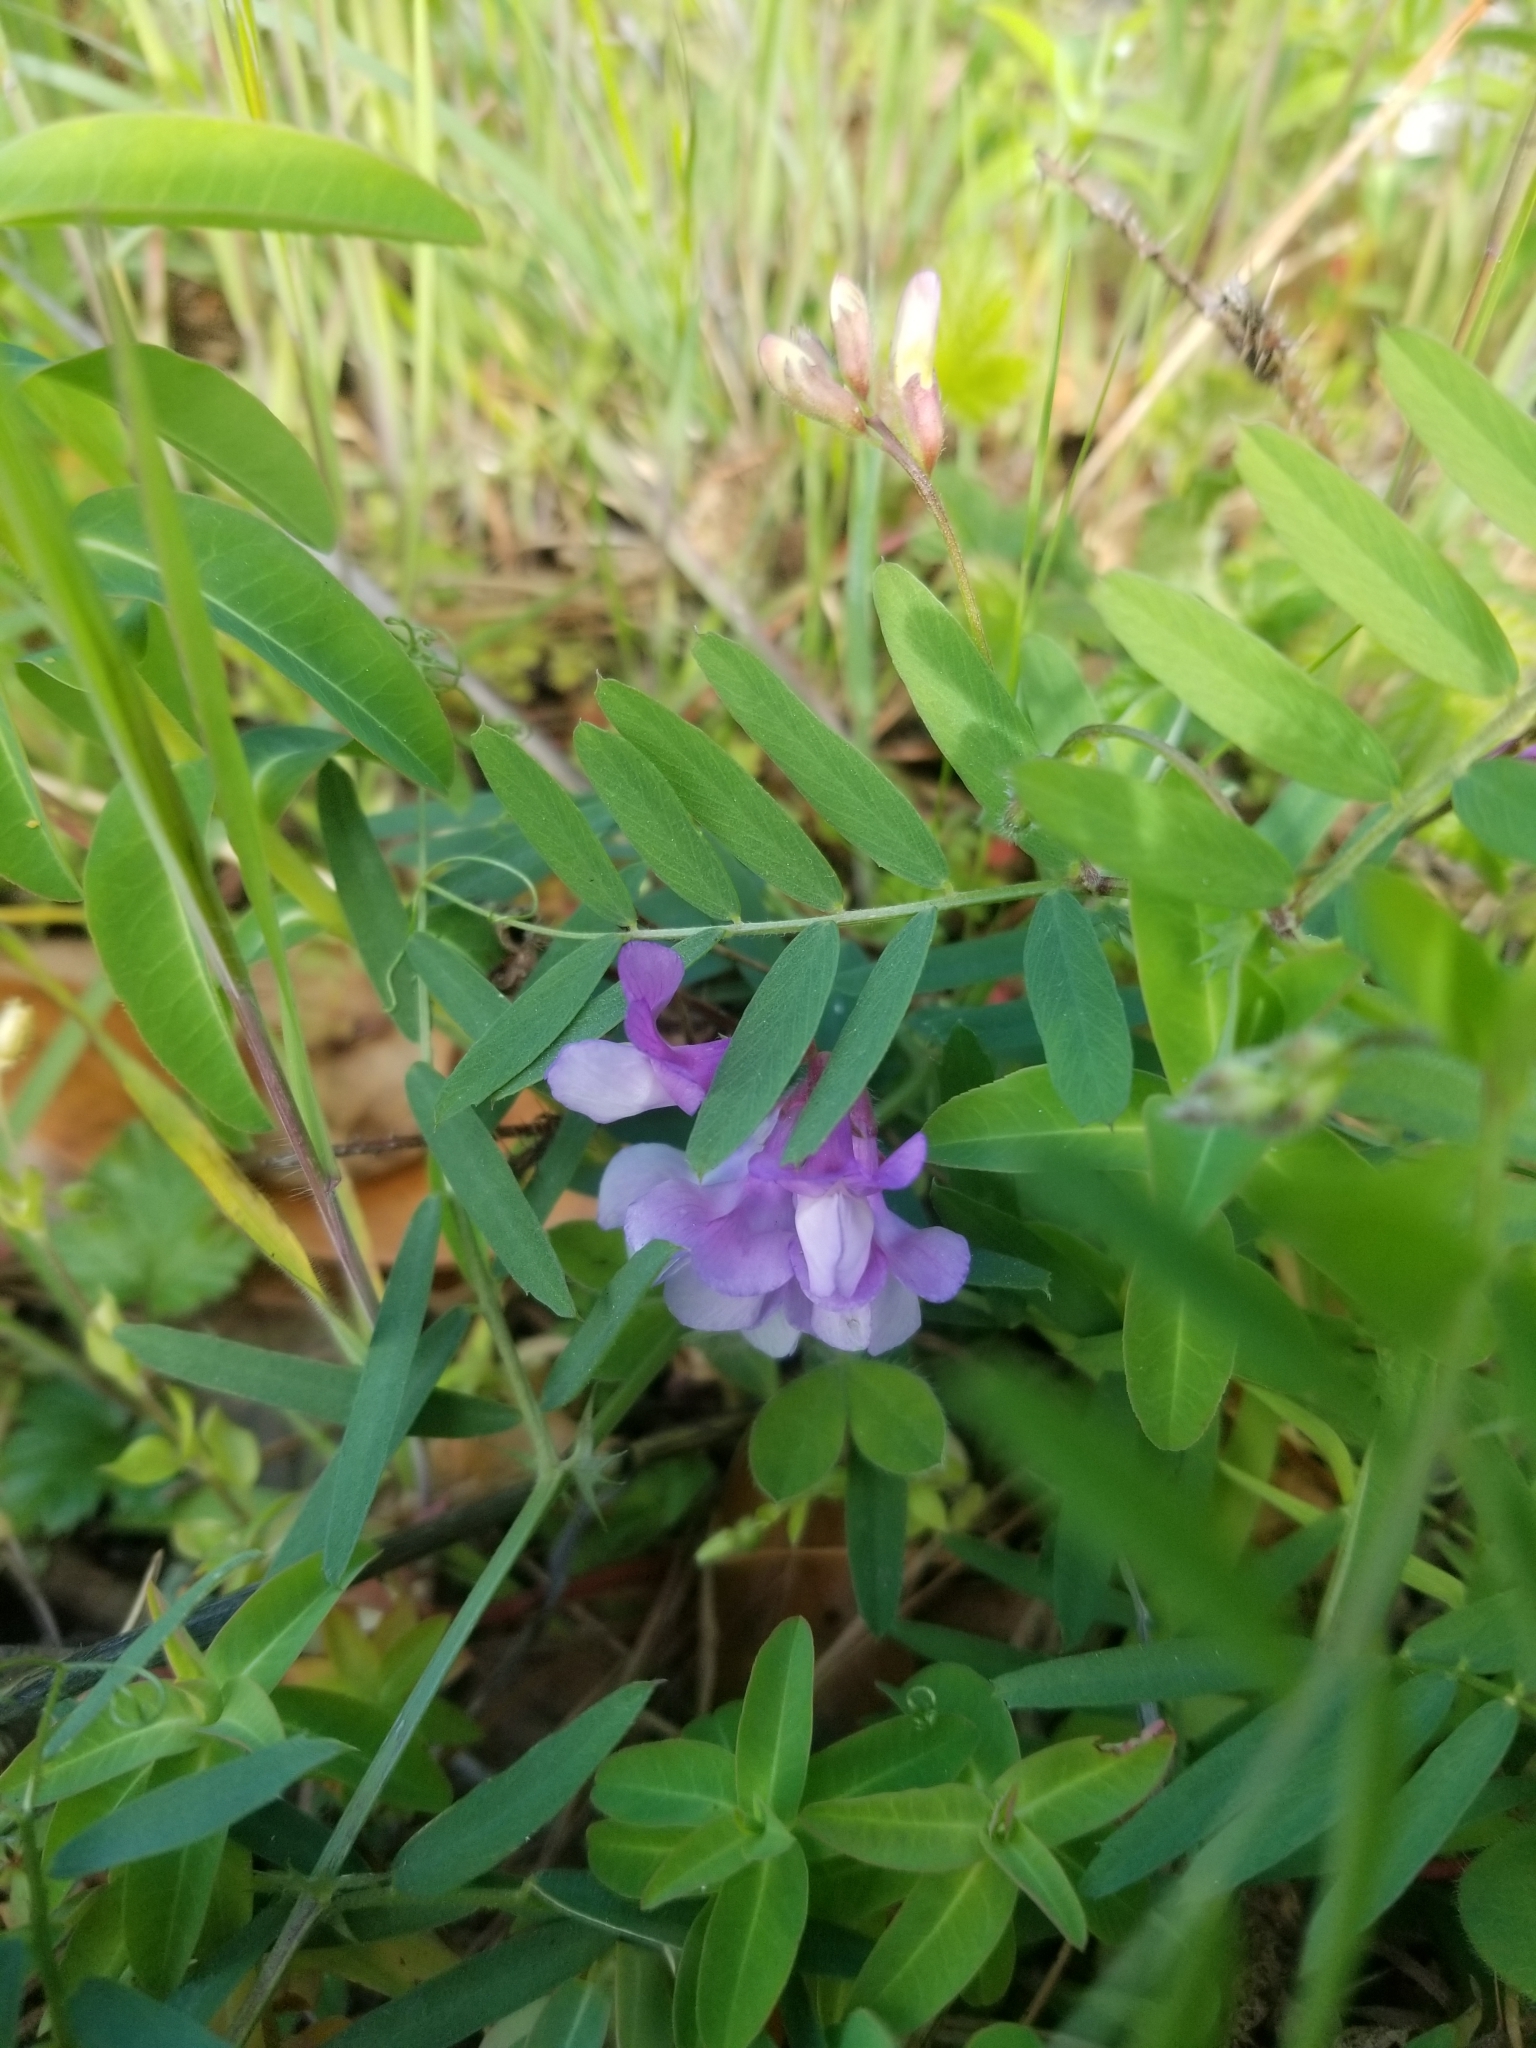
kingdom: Plantae
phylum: Tracheophyta
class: Magnoliopsida
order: Fabales
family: Fabaceae
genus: Vicia
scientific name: Vicia americana
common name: American vetch
